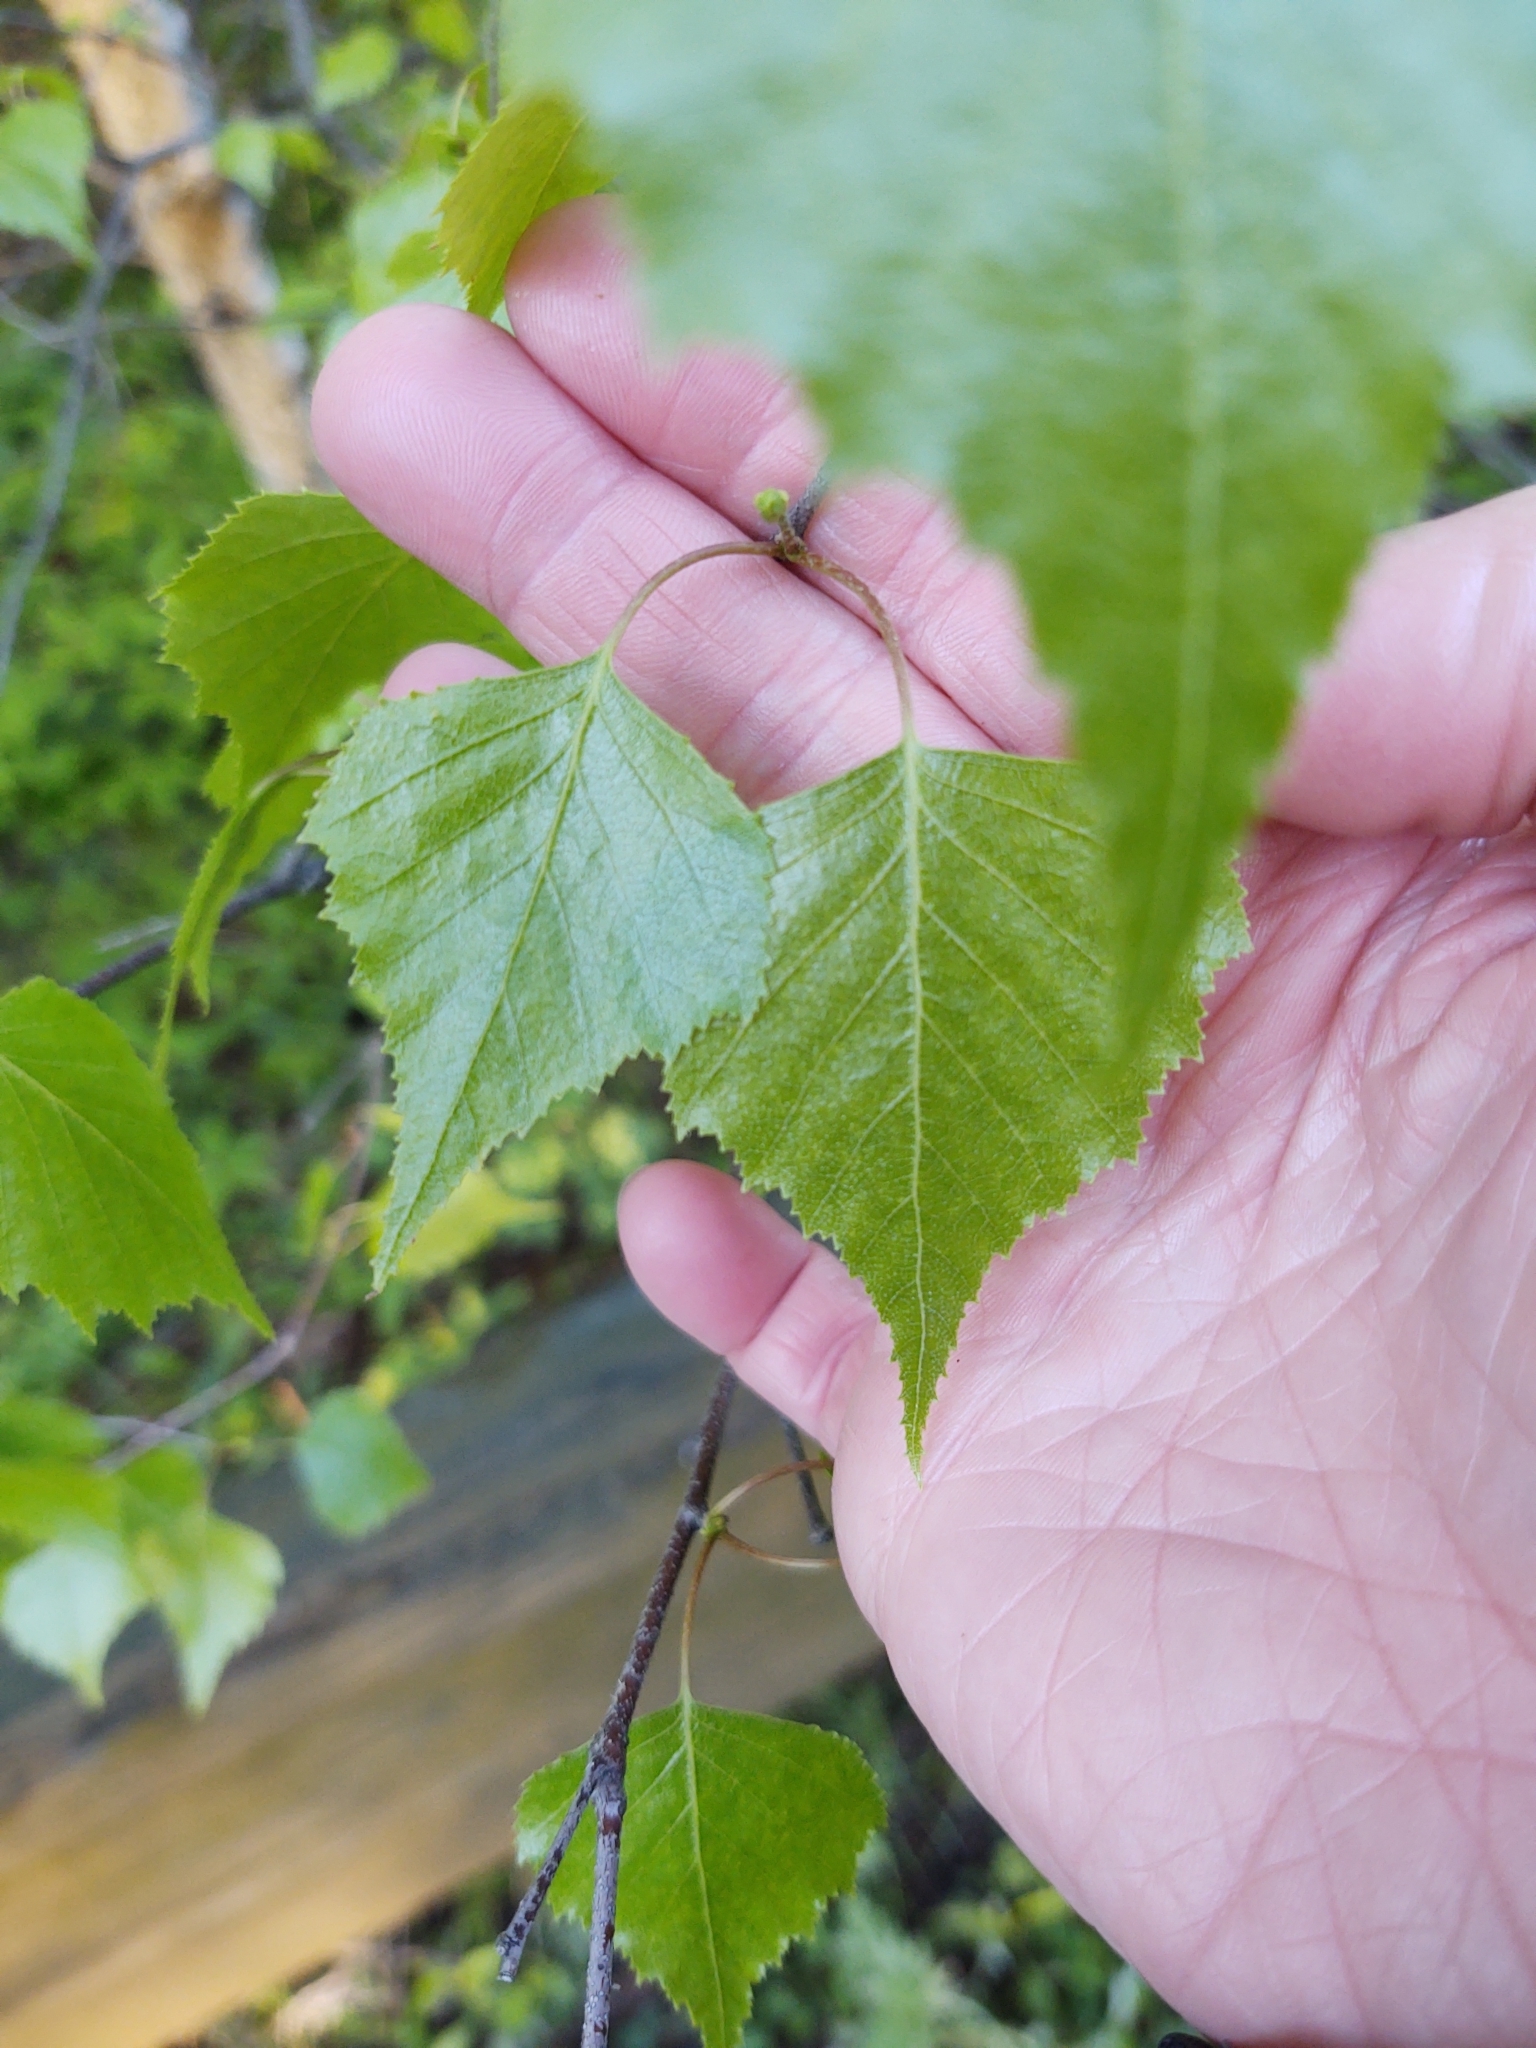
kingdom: Plantae
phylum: Tracheophyta
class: Magnoliopsida
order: Fagales
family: Betulaceae
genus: Betula
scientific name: Betula populifolia
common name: Fire birch
